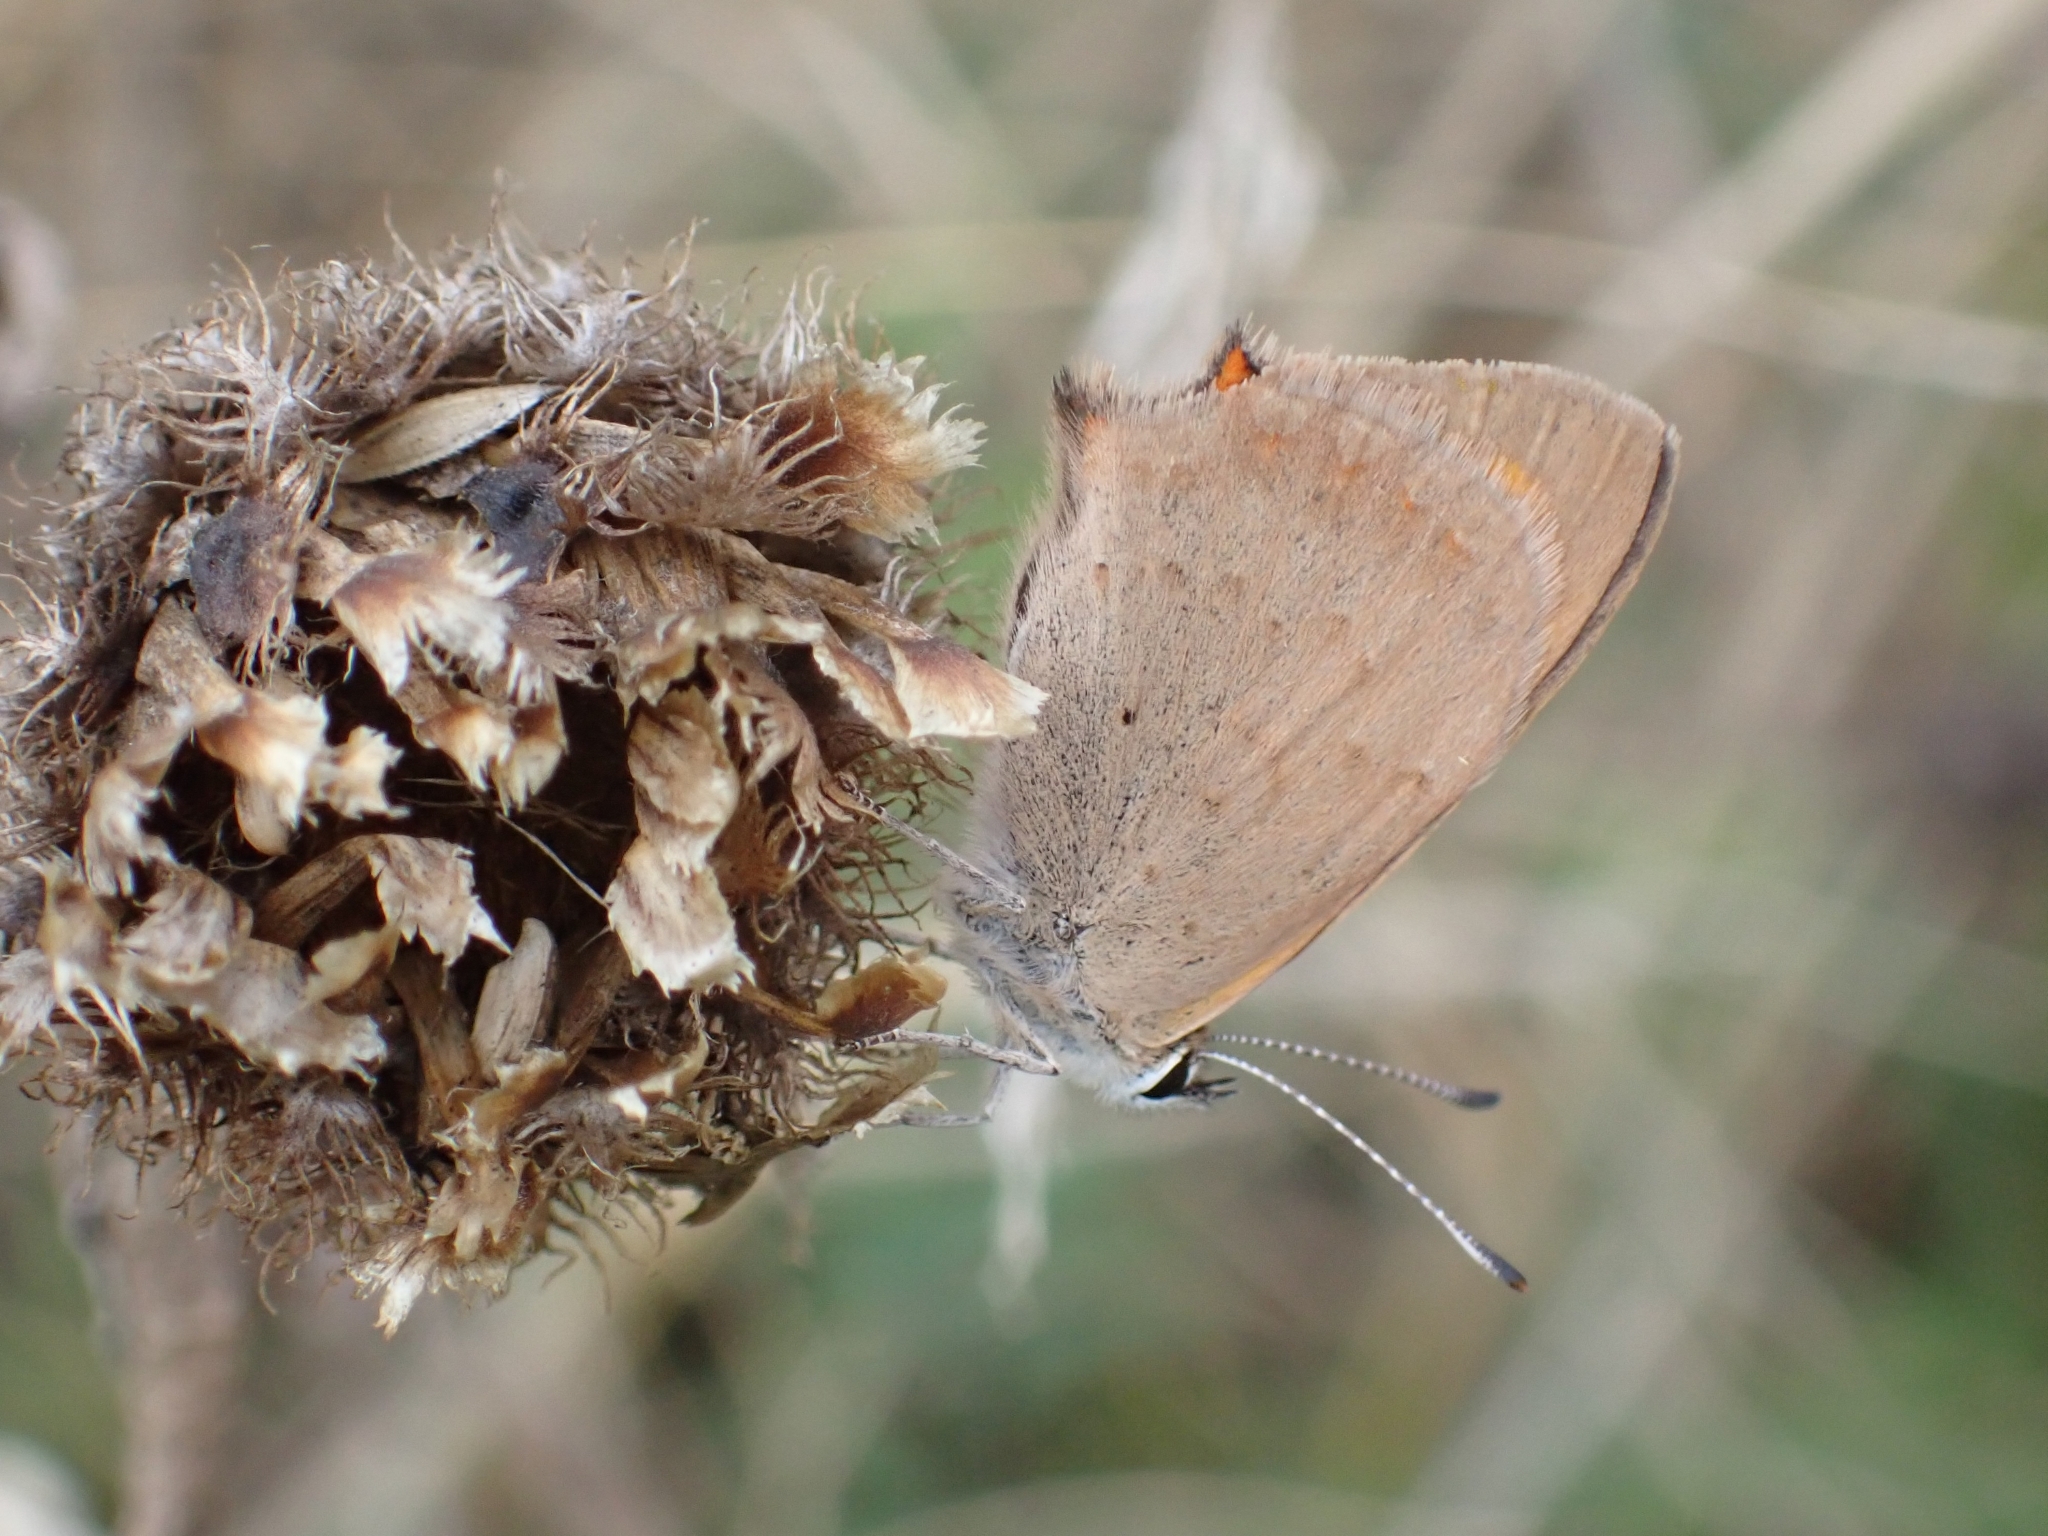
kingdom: Animalia
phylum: Arthropoda
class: Insecta
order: Lepidoptera
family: Lycaenidae
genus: Lycaena
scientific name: Lycaena phlaeas
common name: Small copper
